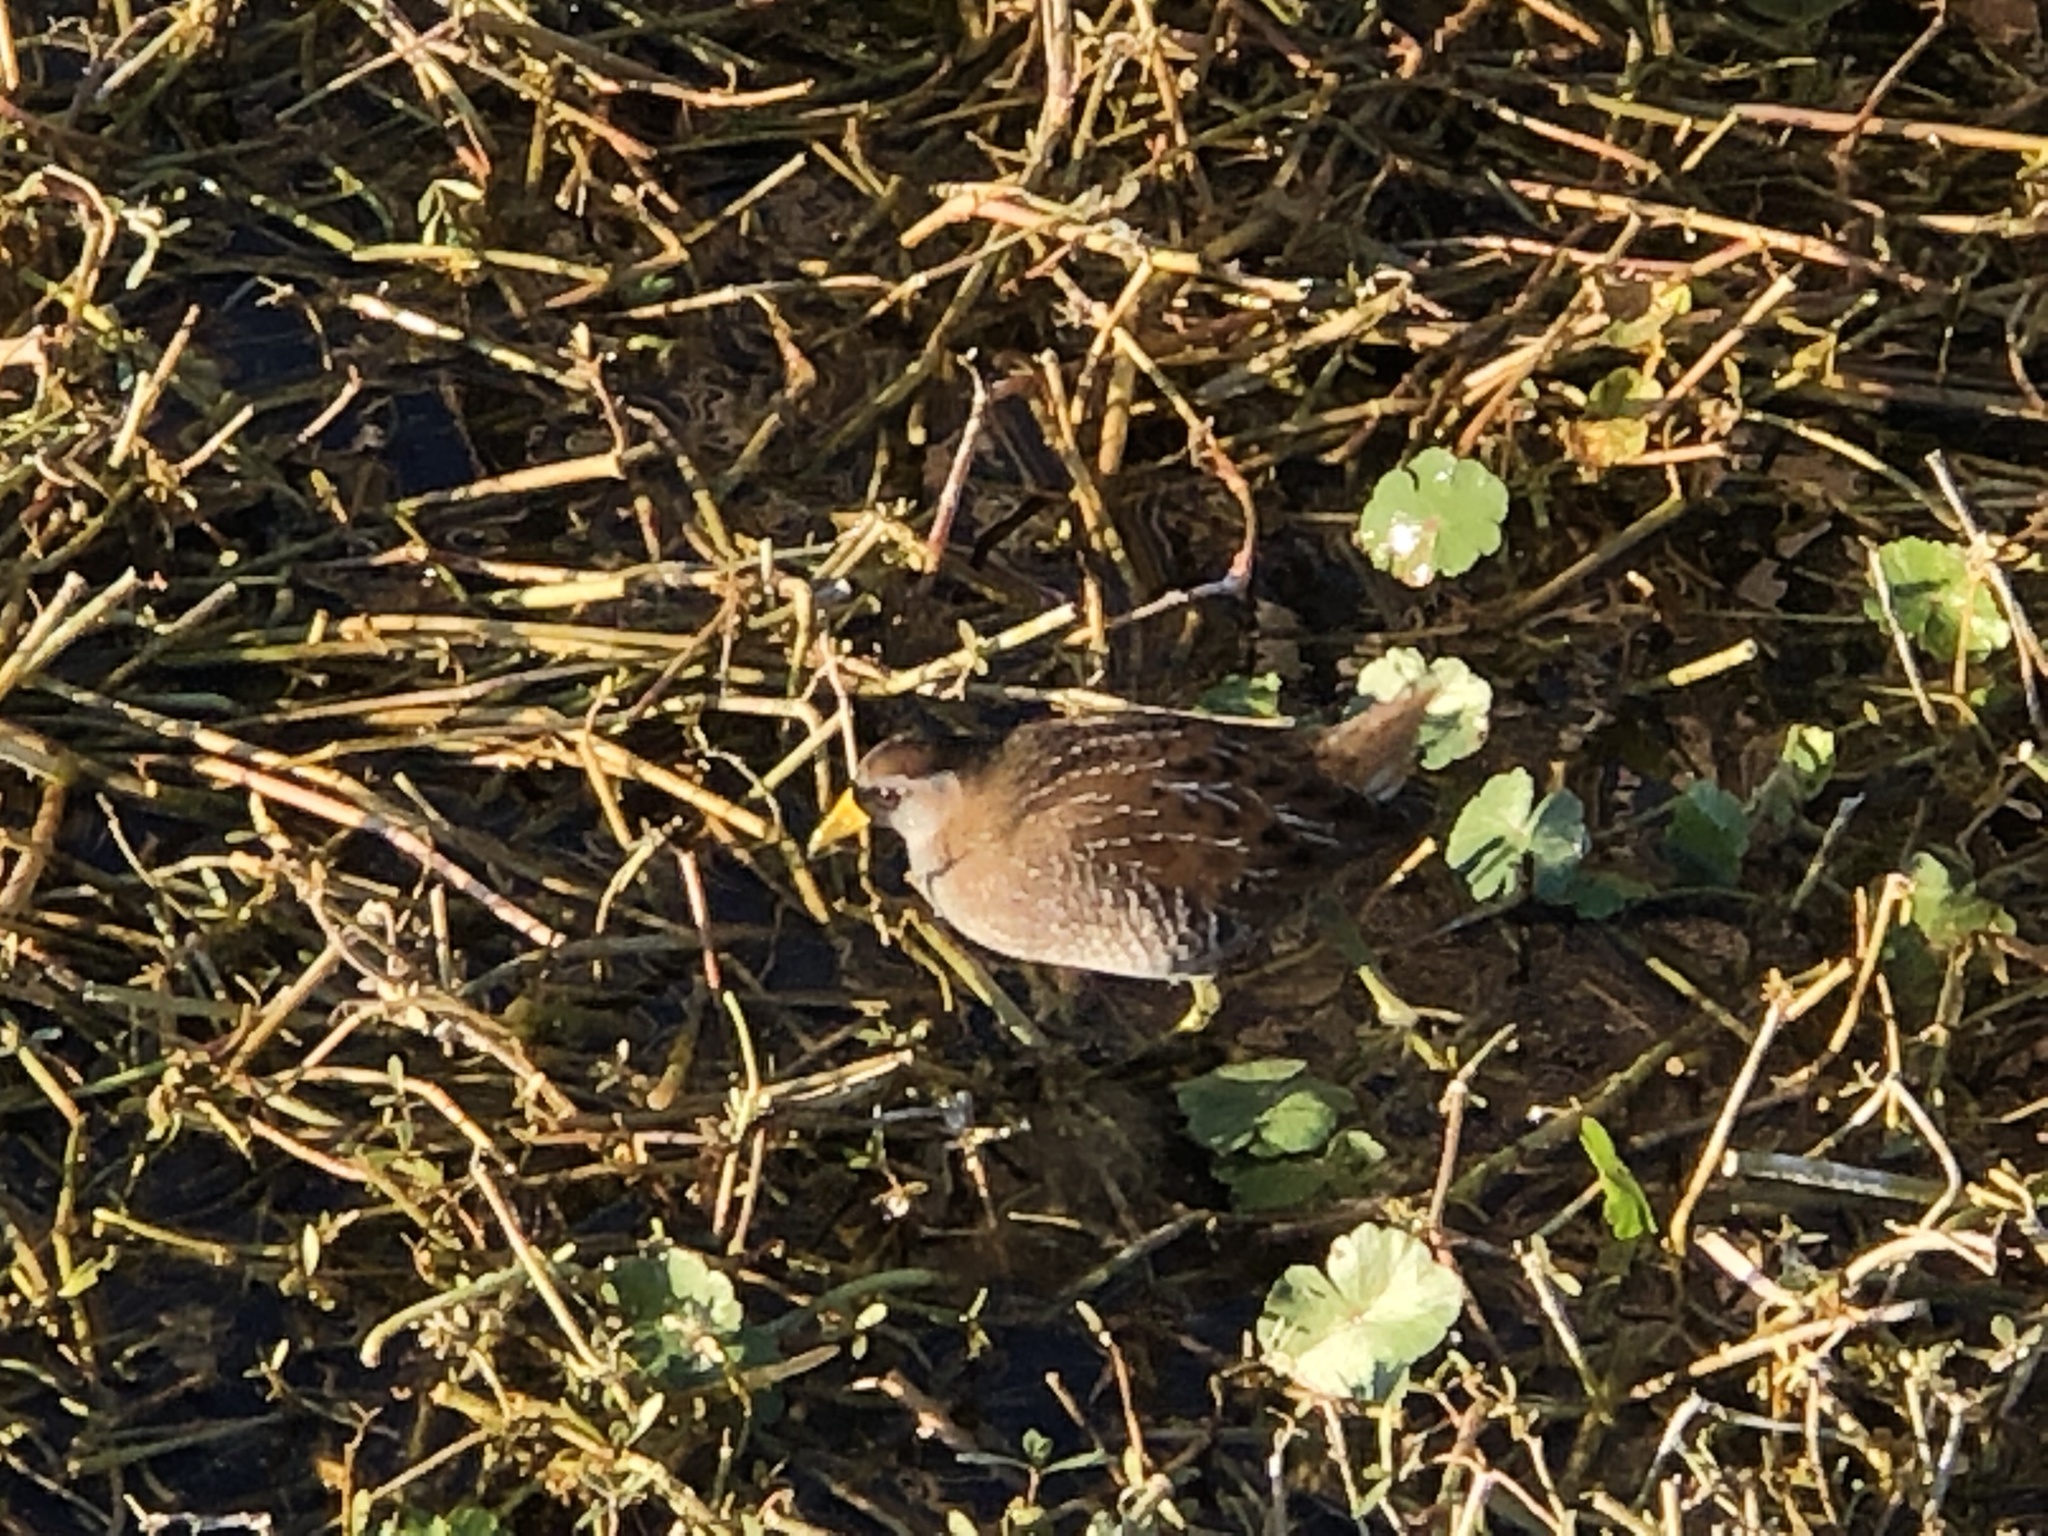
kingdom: Animalia
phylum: Chordata
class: Aves
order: Gruiformes
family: Rallidae
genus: Porzana
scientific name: Porzana carolina
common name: Sora
